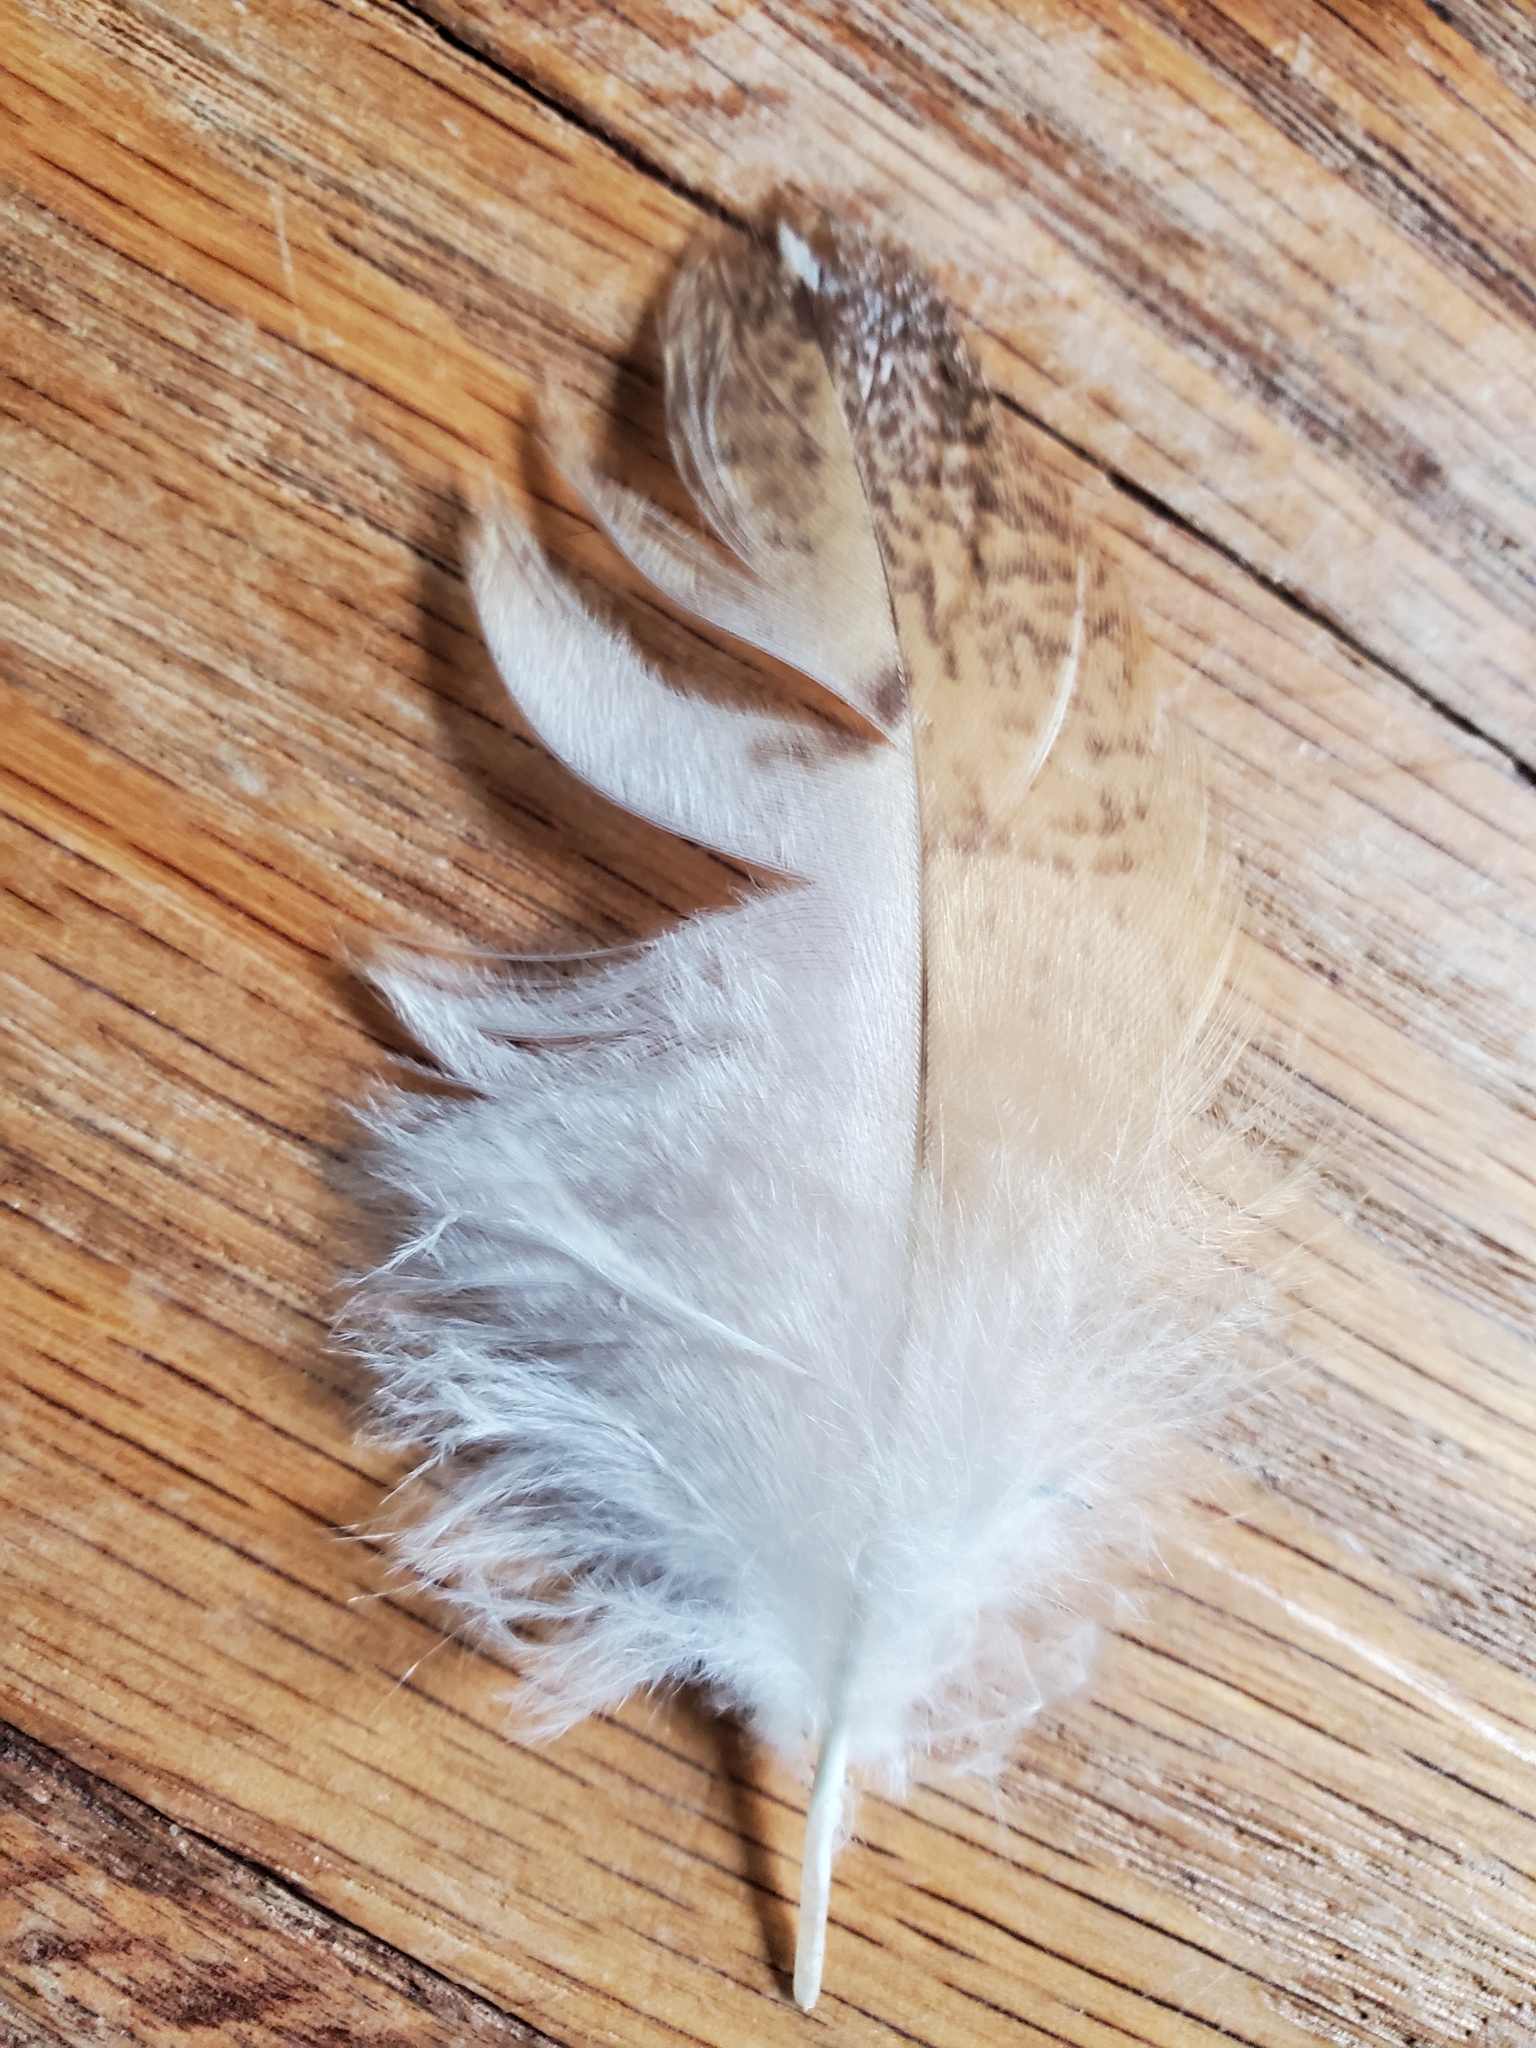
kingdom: Animalia
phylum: Chordata
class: Aves
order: Strigiformes
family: Tytonidae
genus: Tyto
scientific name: Tyto alba
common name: Barn owl
